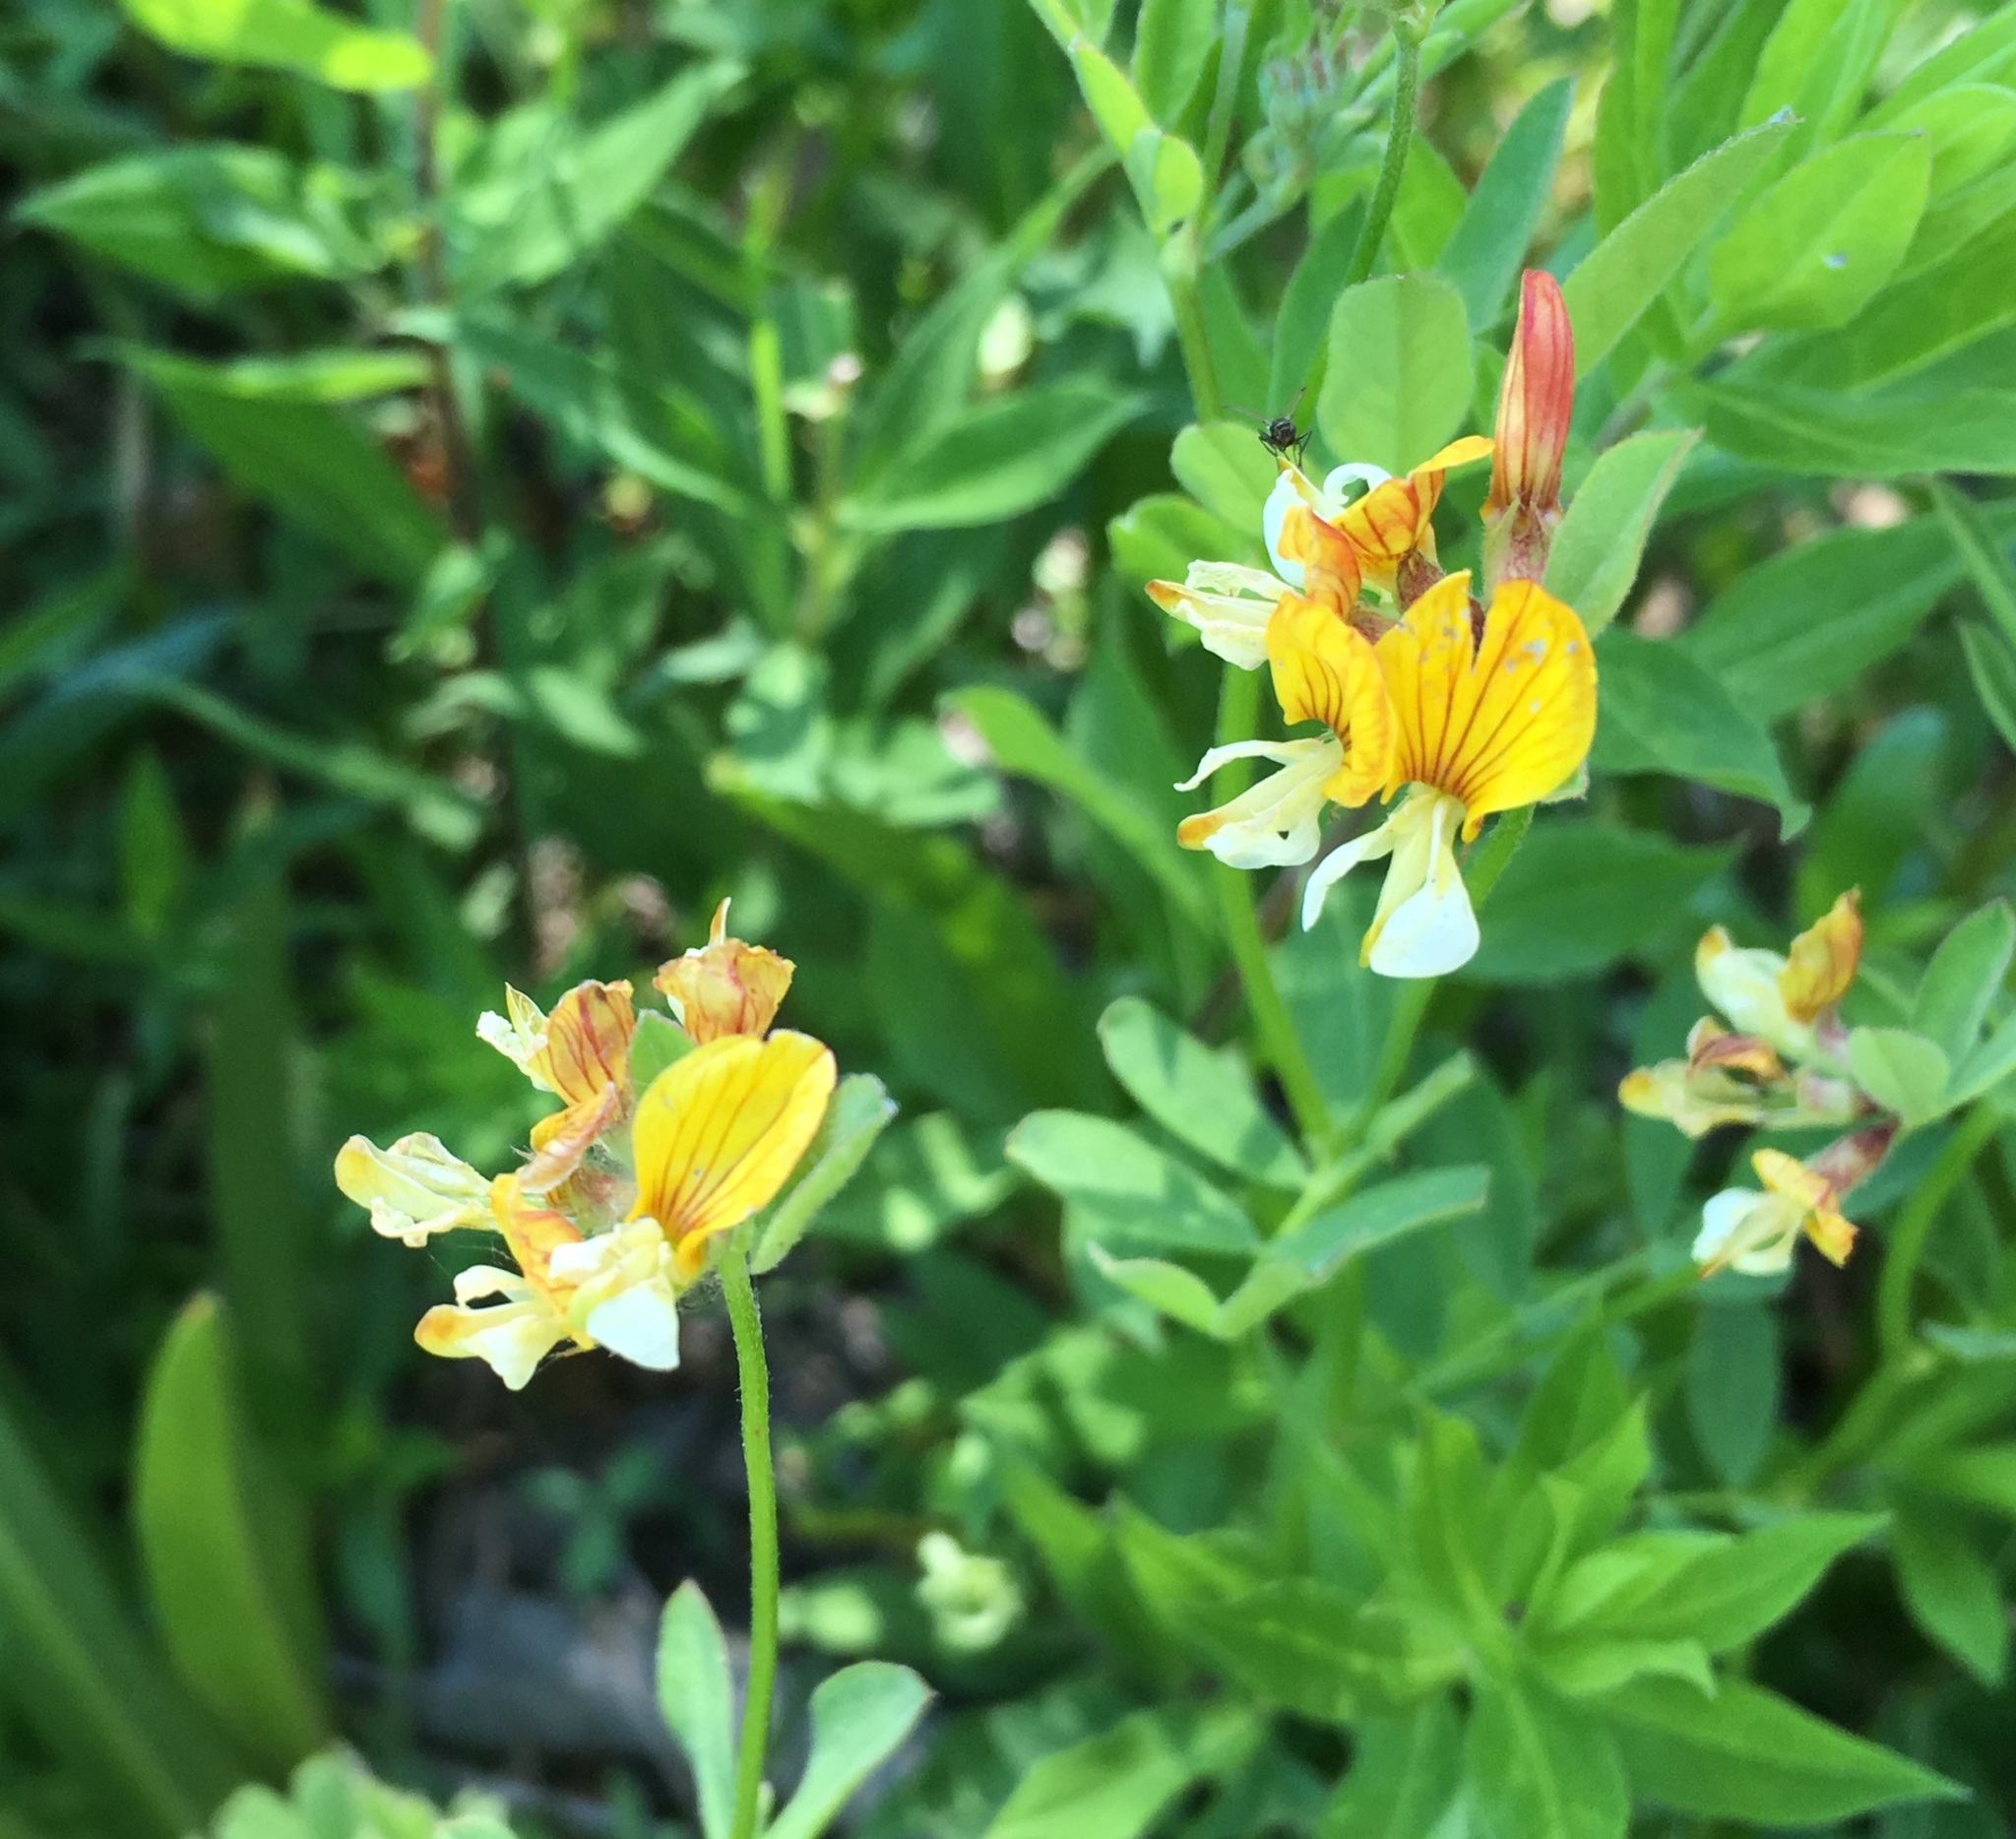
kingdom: Plantae
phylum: Tracheophyta
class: Magnoliopsida
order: Fabales
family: Fabaceae
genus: Hosackia
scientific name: Hosackia oblongifolia
